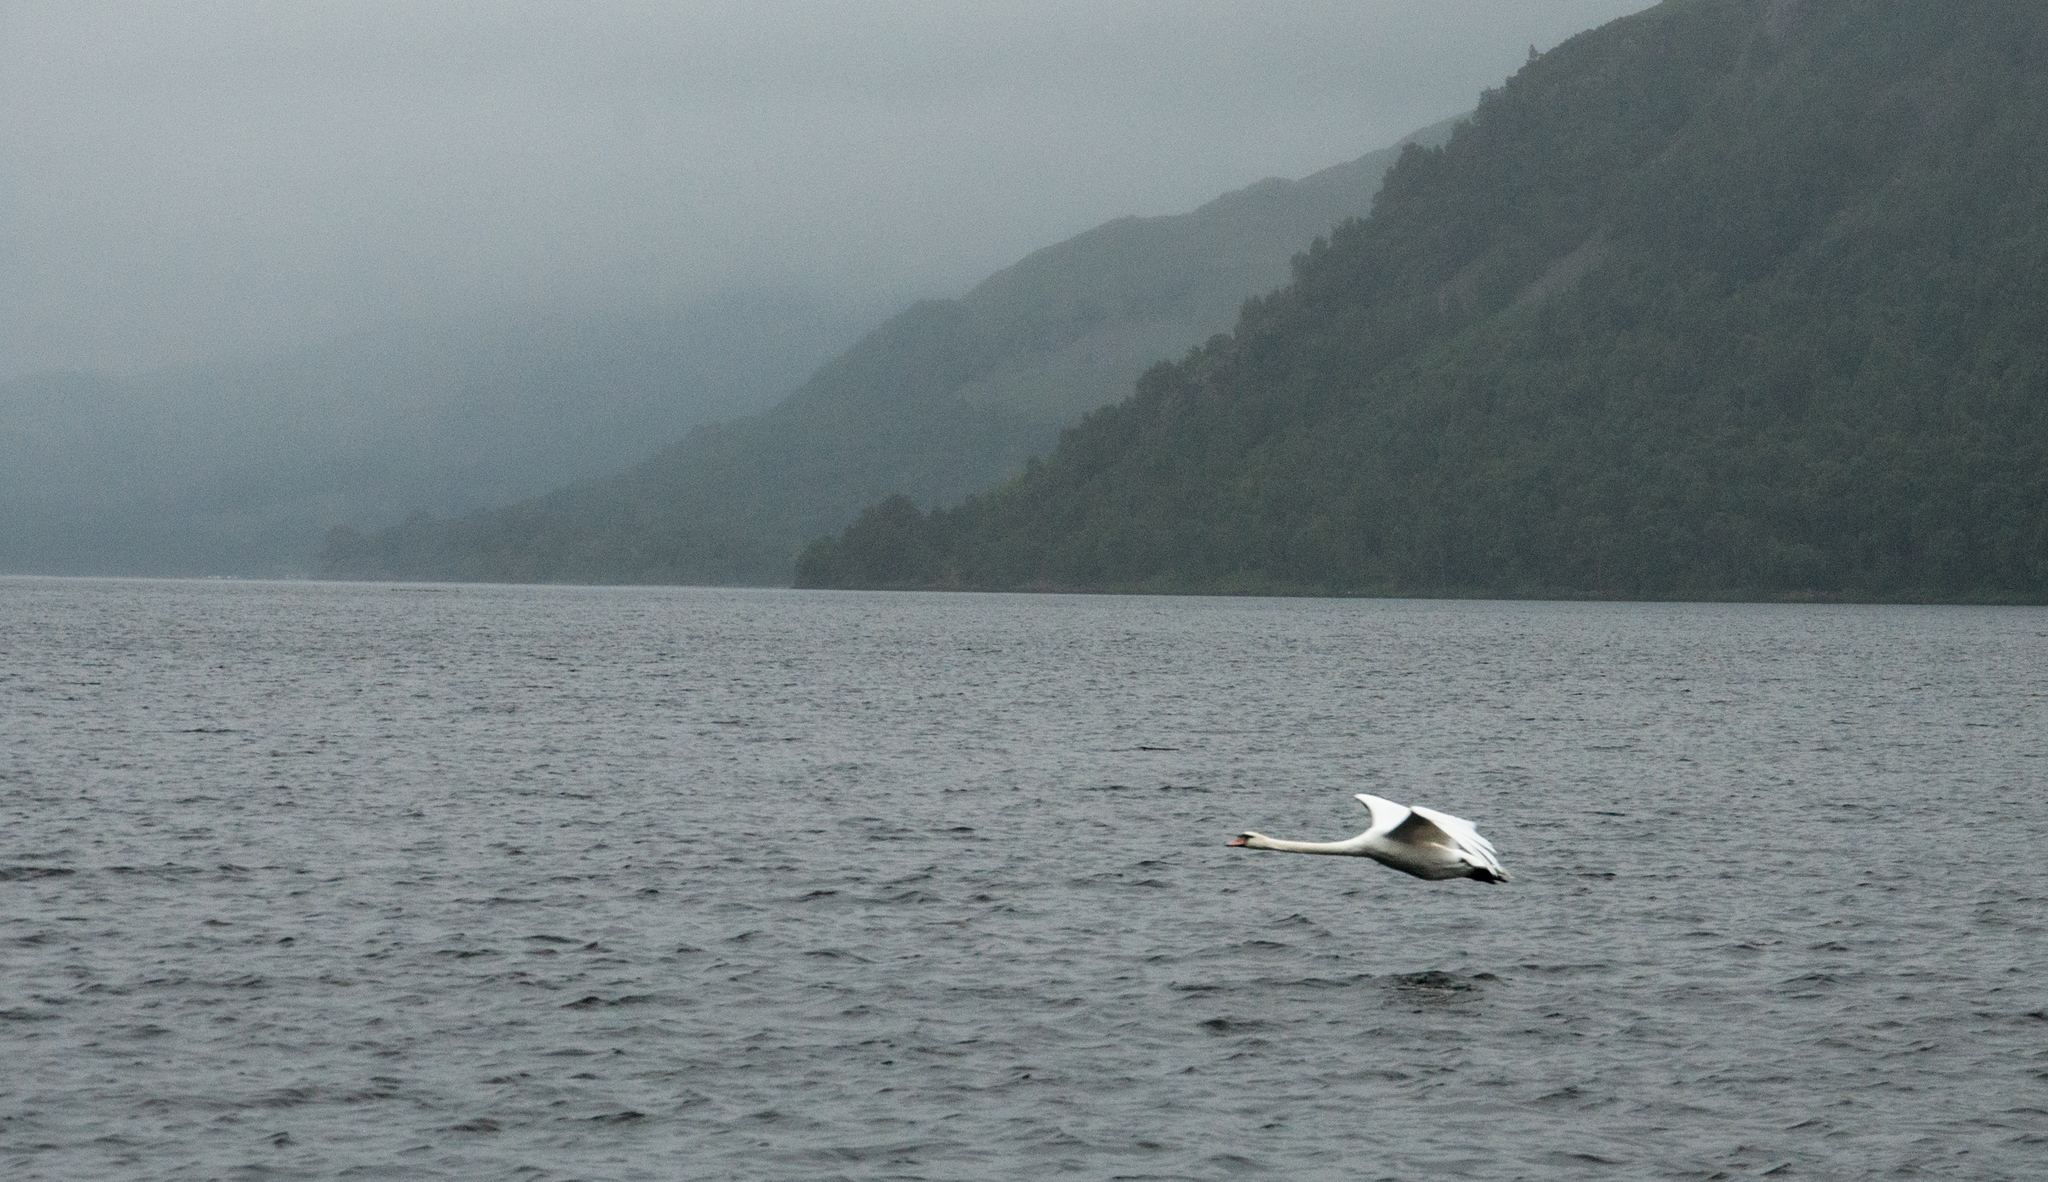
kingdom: Animalia
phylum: Chordata
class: Aves
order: Anseriformes
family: Anatidae
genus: Cygnus
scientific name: Cygnus olor
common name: Mute swan
